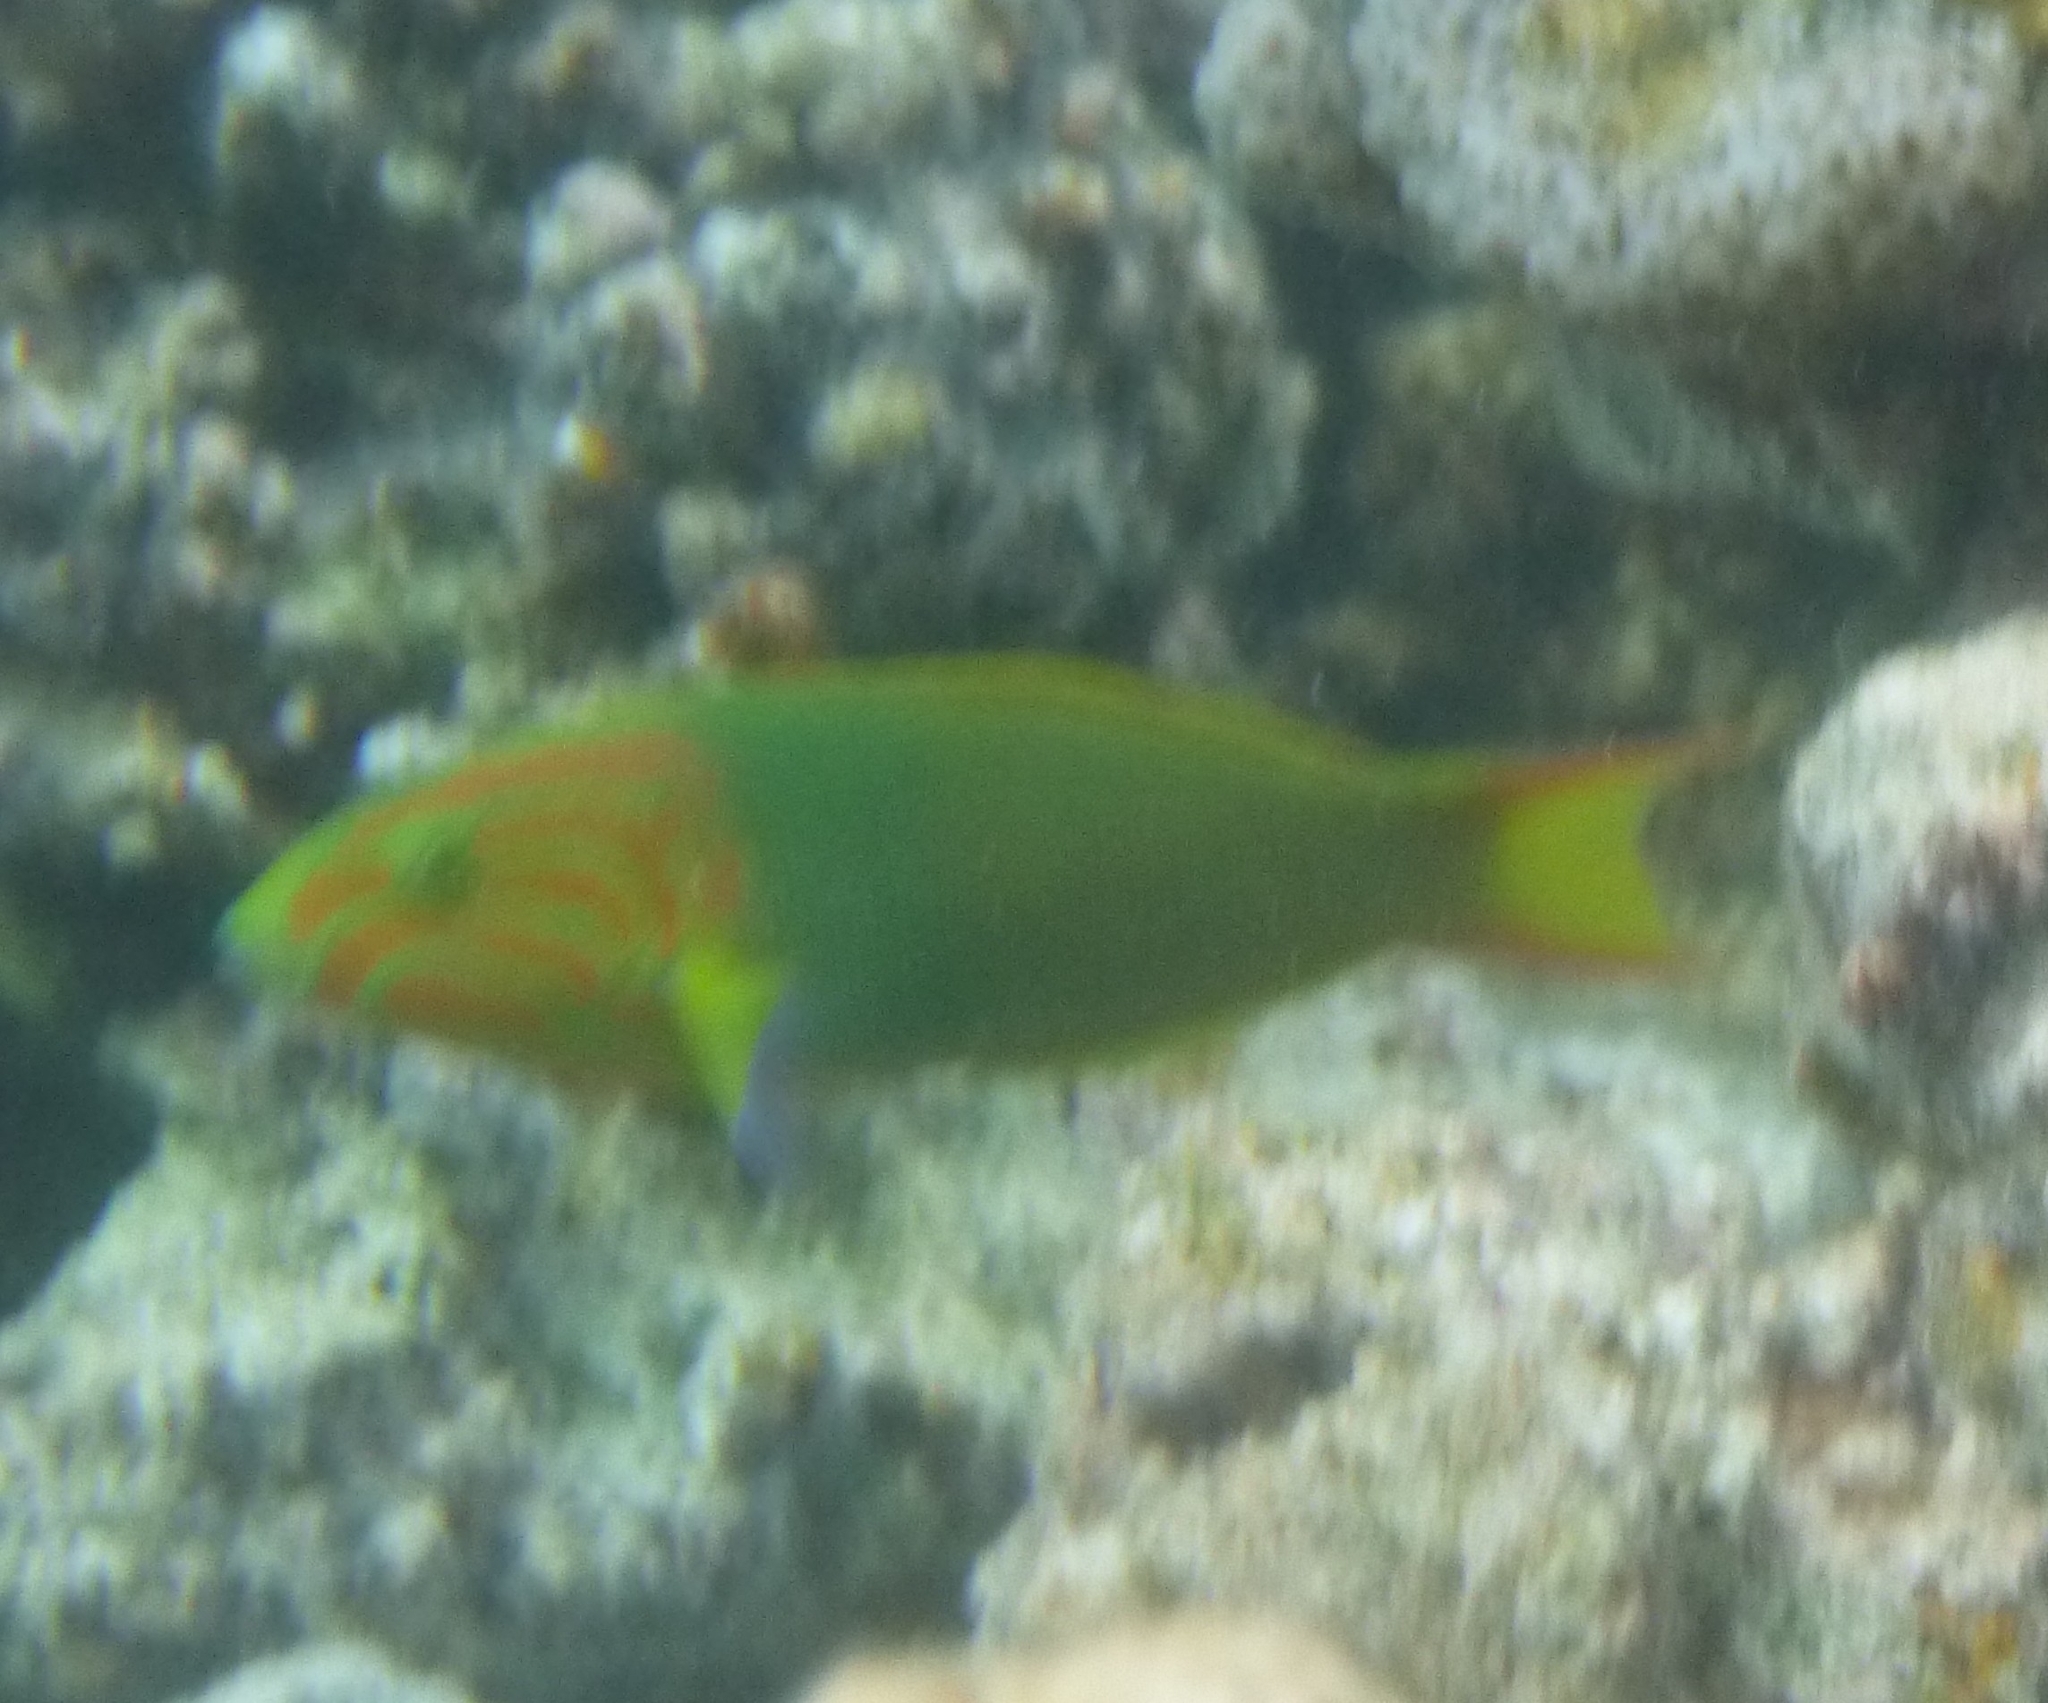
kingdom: Animalia
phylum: Chordata
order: Perciformes
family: Labridae
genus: Thalassoma
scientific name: Thalassoma lutescens
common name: Green moon wrasse
